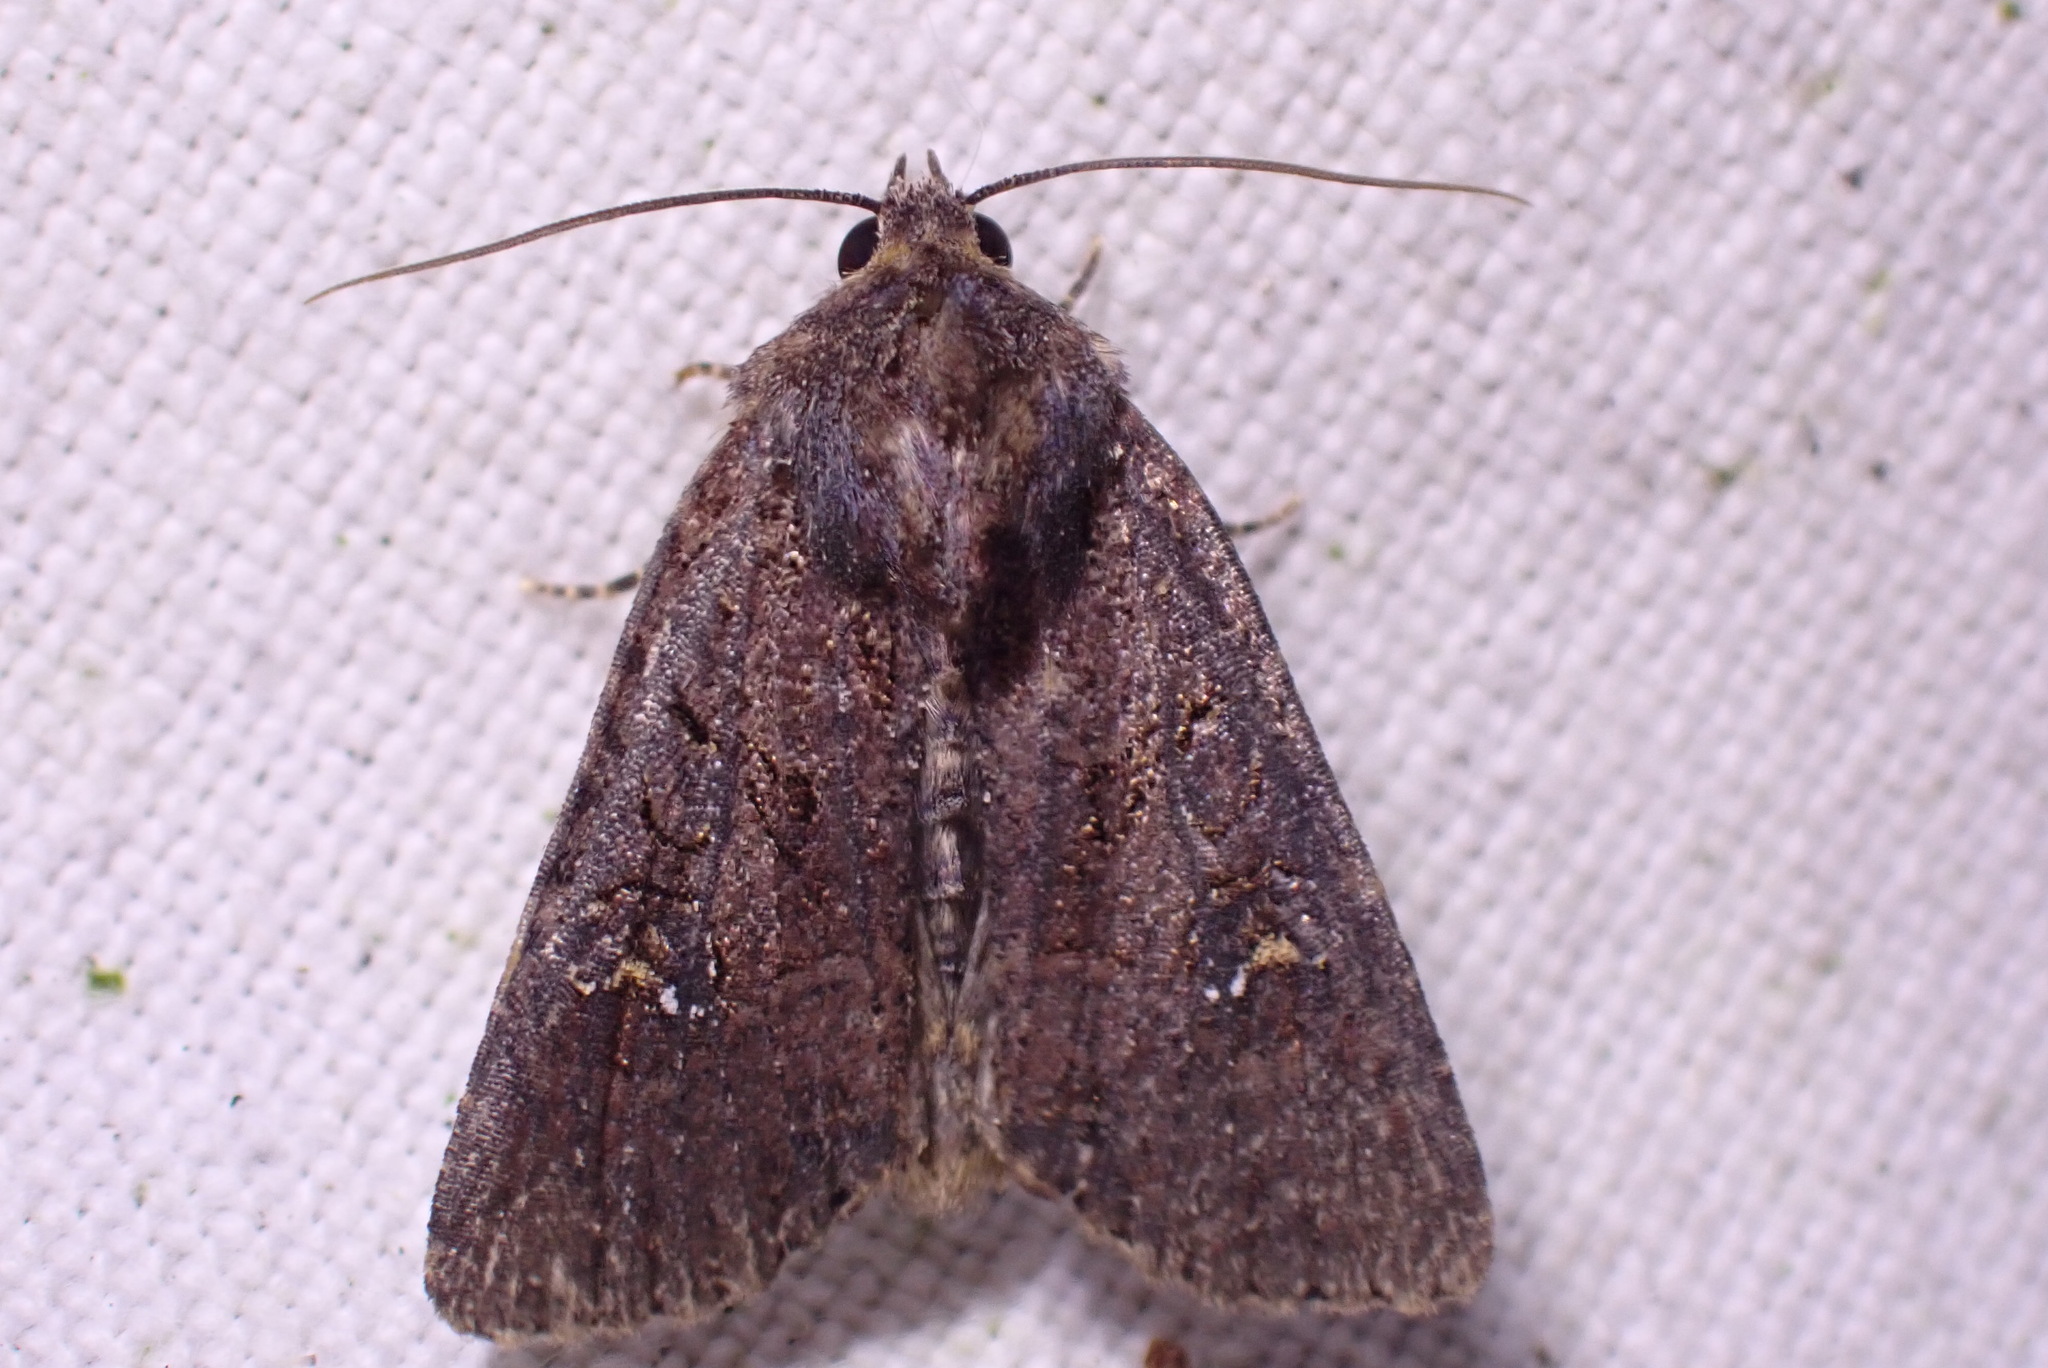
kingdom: Animalia
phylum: Arthropoda
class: Insecta
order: Lepidoptera
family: Noctuidae
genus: Mesapamea
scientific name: Mesapamea
